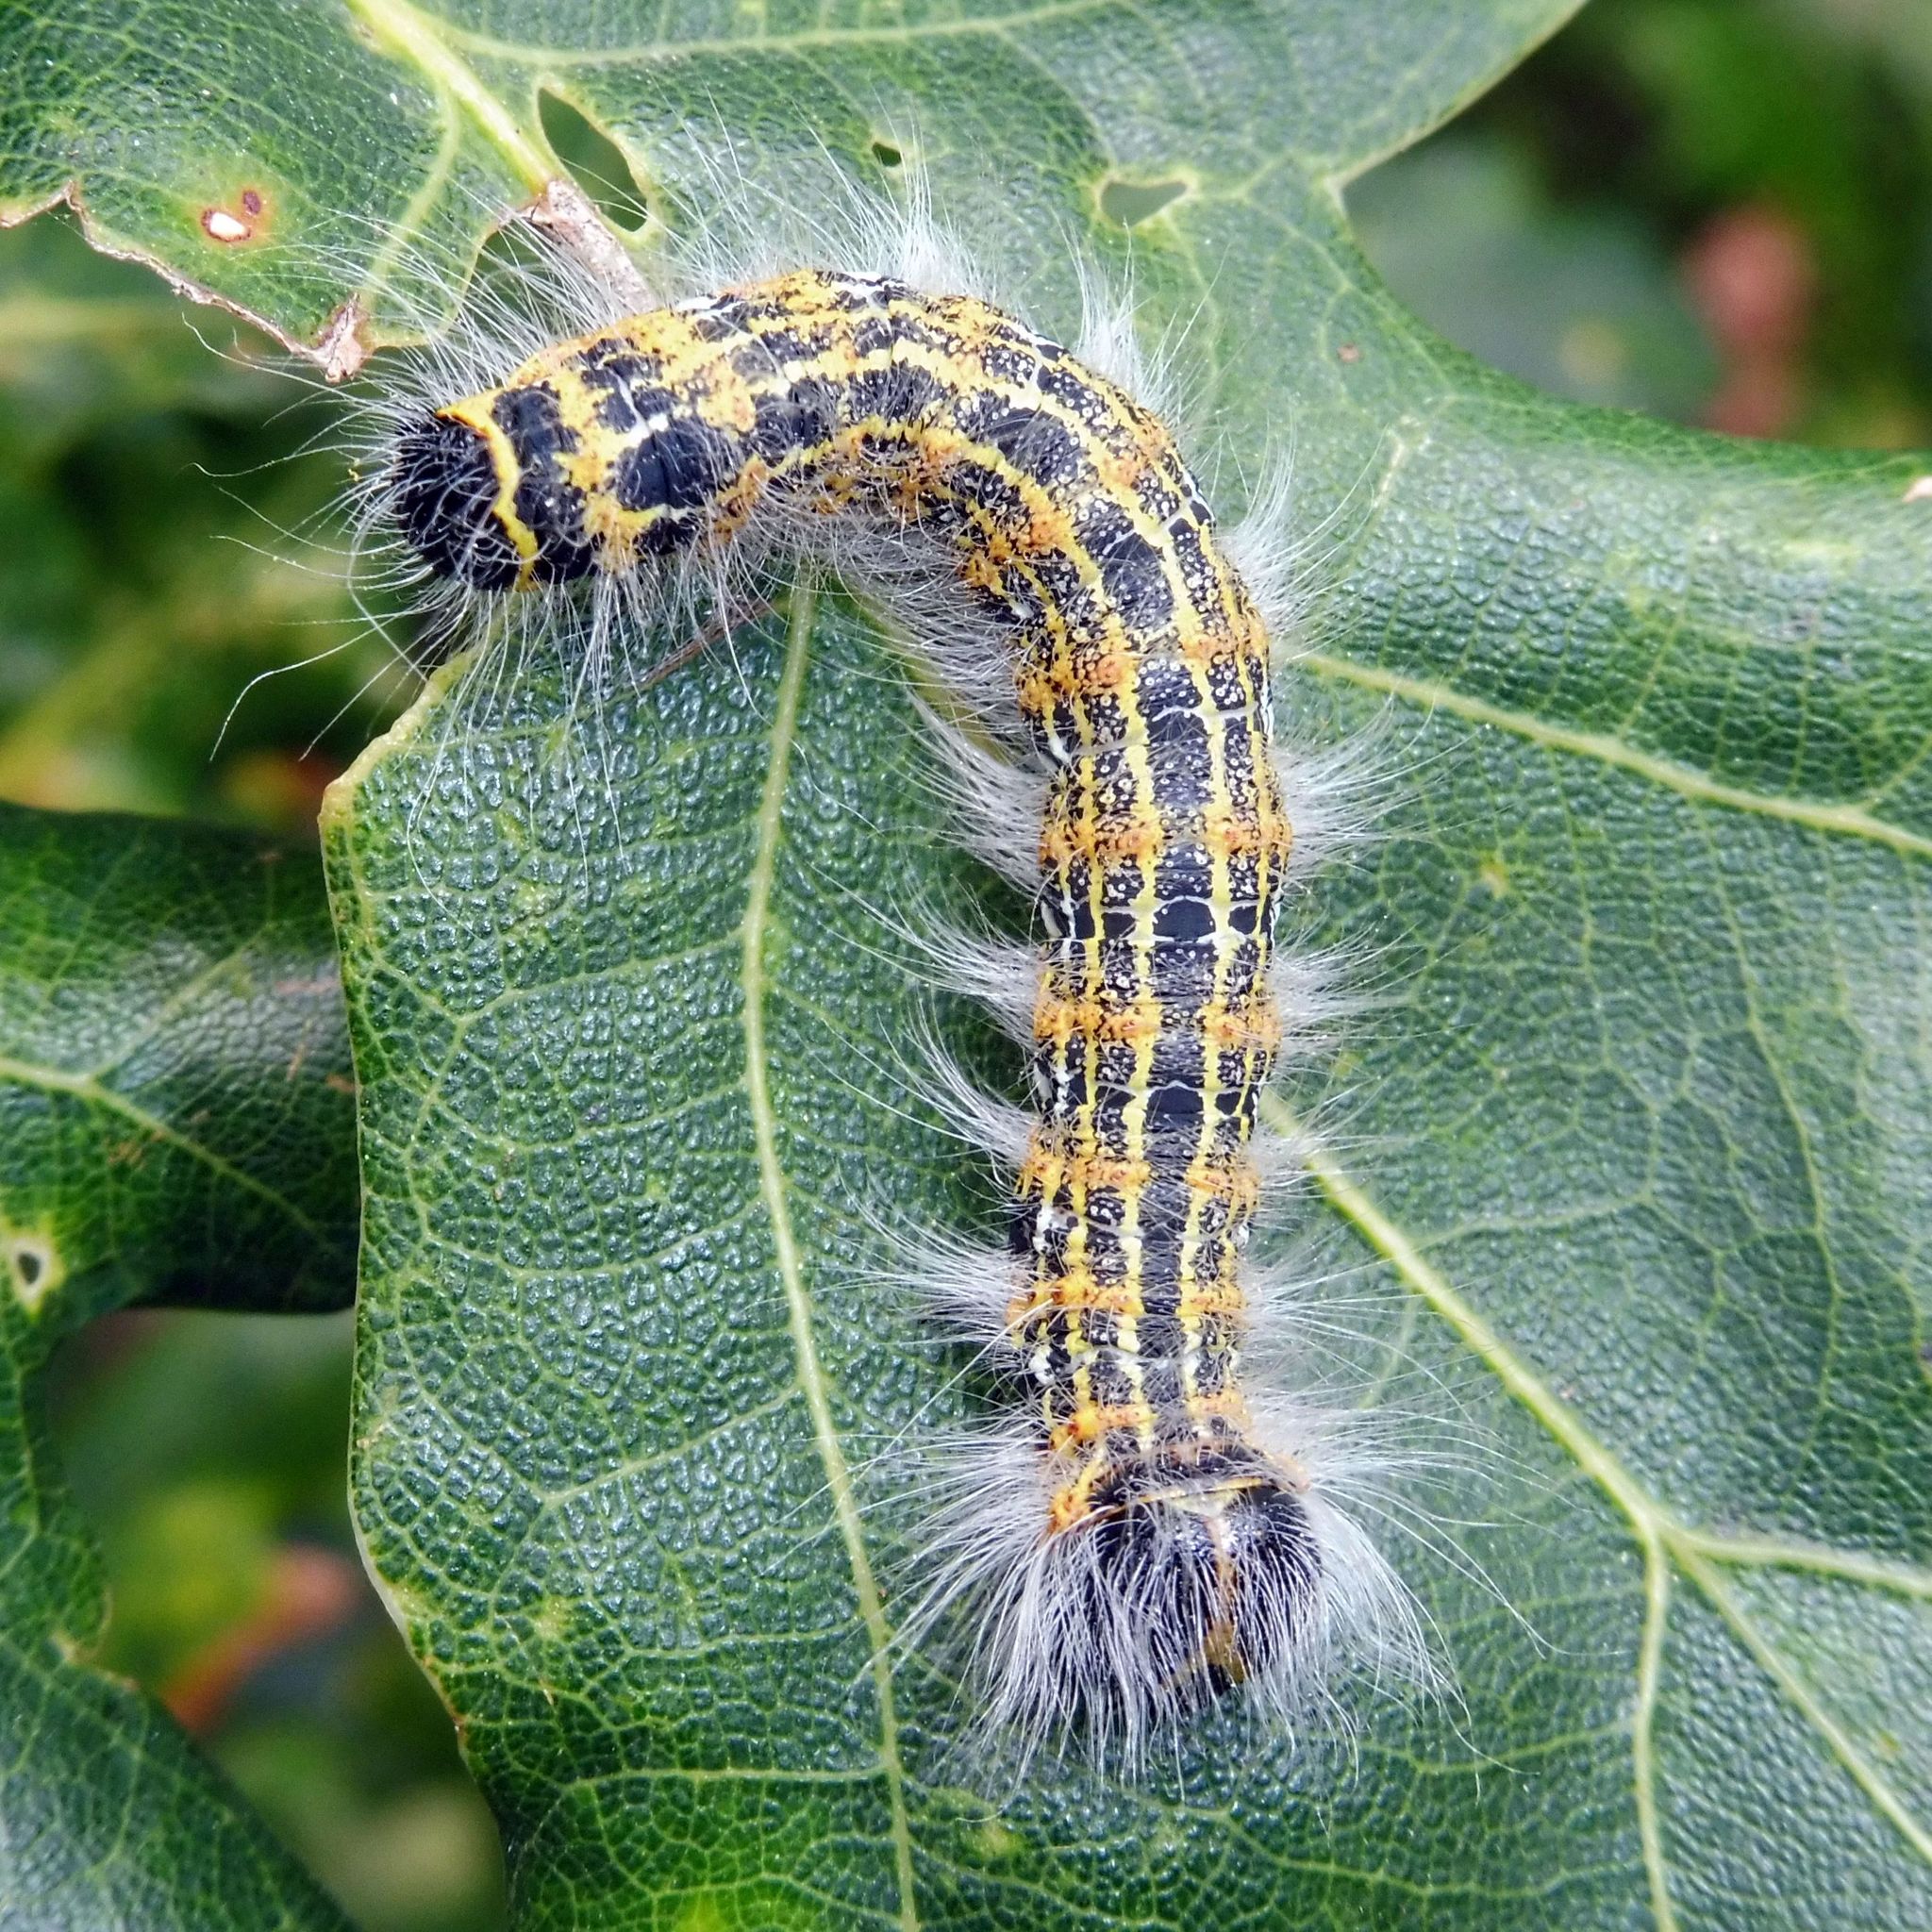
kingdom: Animalia
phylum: Arthropoda
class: Insecta
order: Lepidoptera
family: Notodontidae
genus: Phalera
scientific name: Phalera bucephala
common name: Buff-tip
